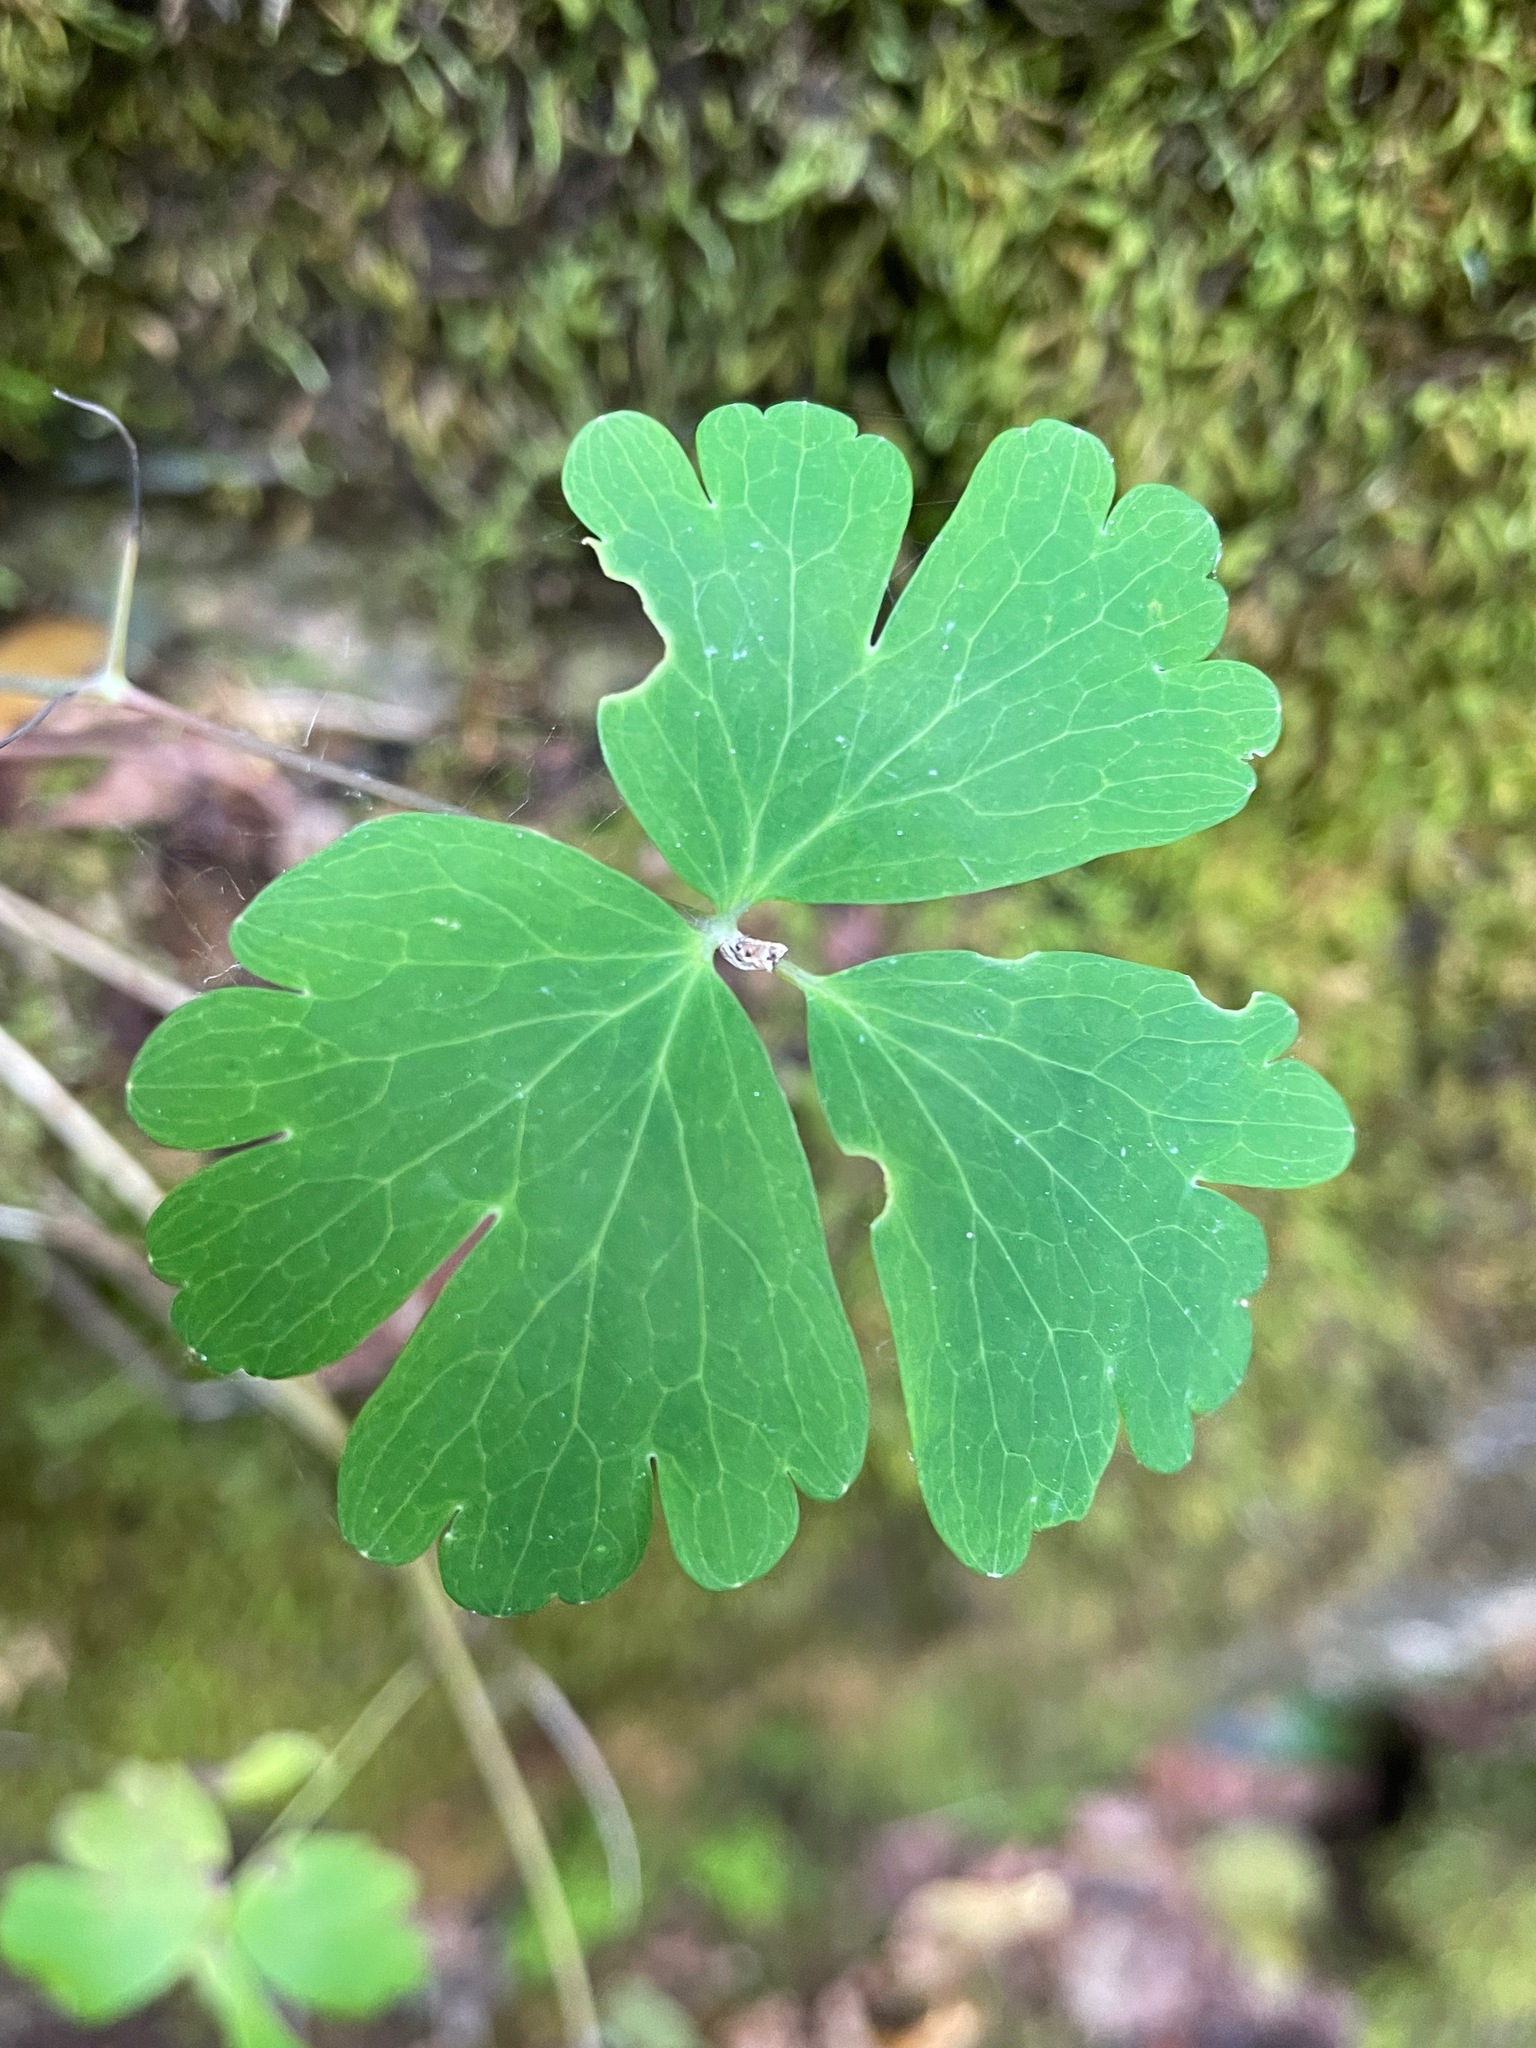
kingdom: Plantae
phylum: Tracheophyta
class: Magnoliopsida
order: Ranunculales
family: Ranunculaceae
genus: Aquilegia
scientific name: Aquilegia canadensis
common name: American columbine
